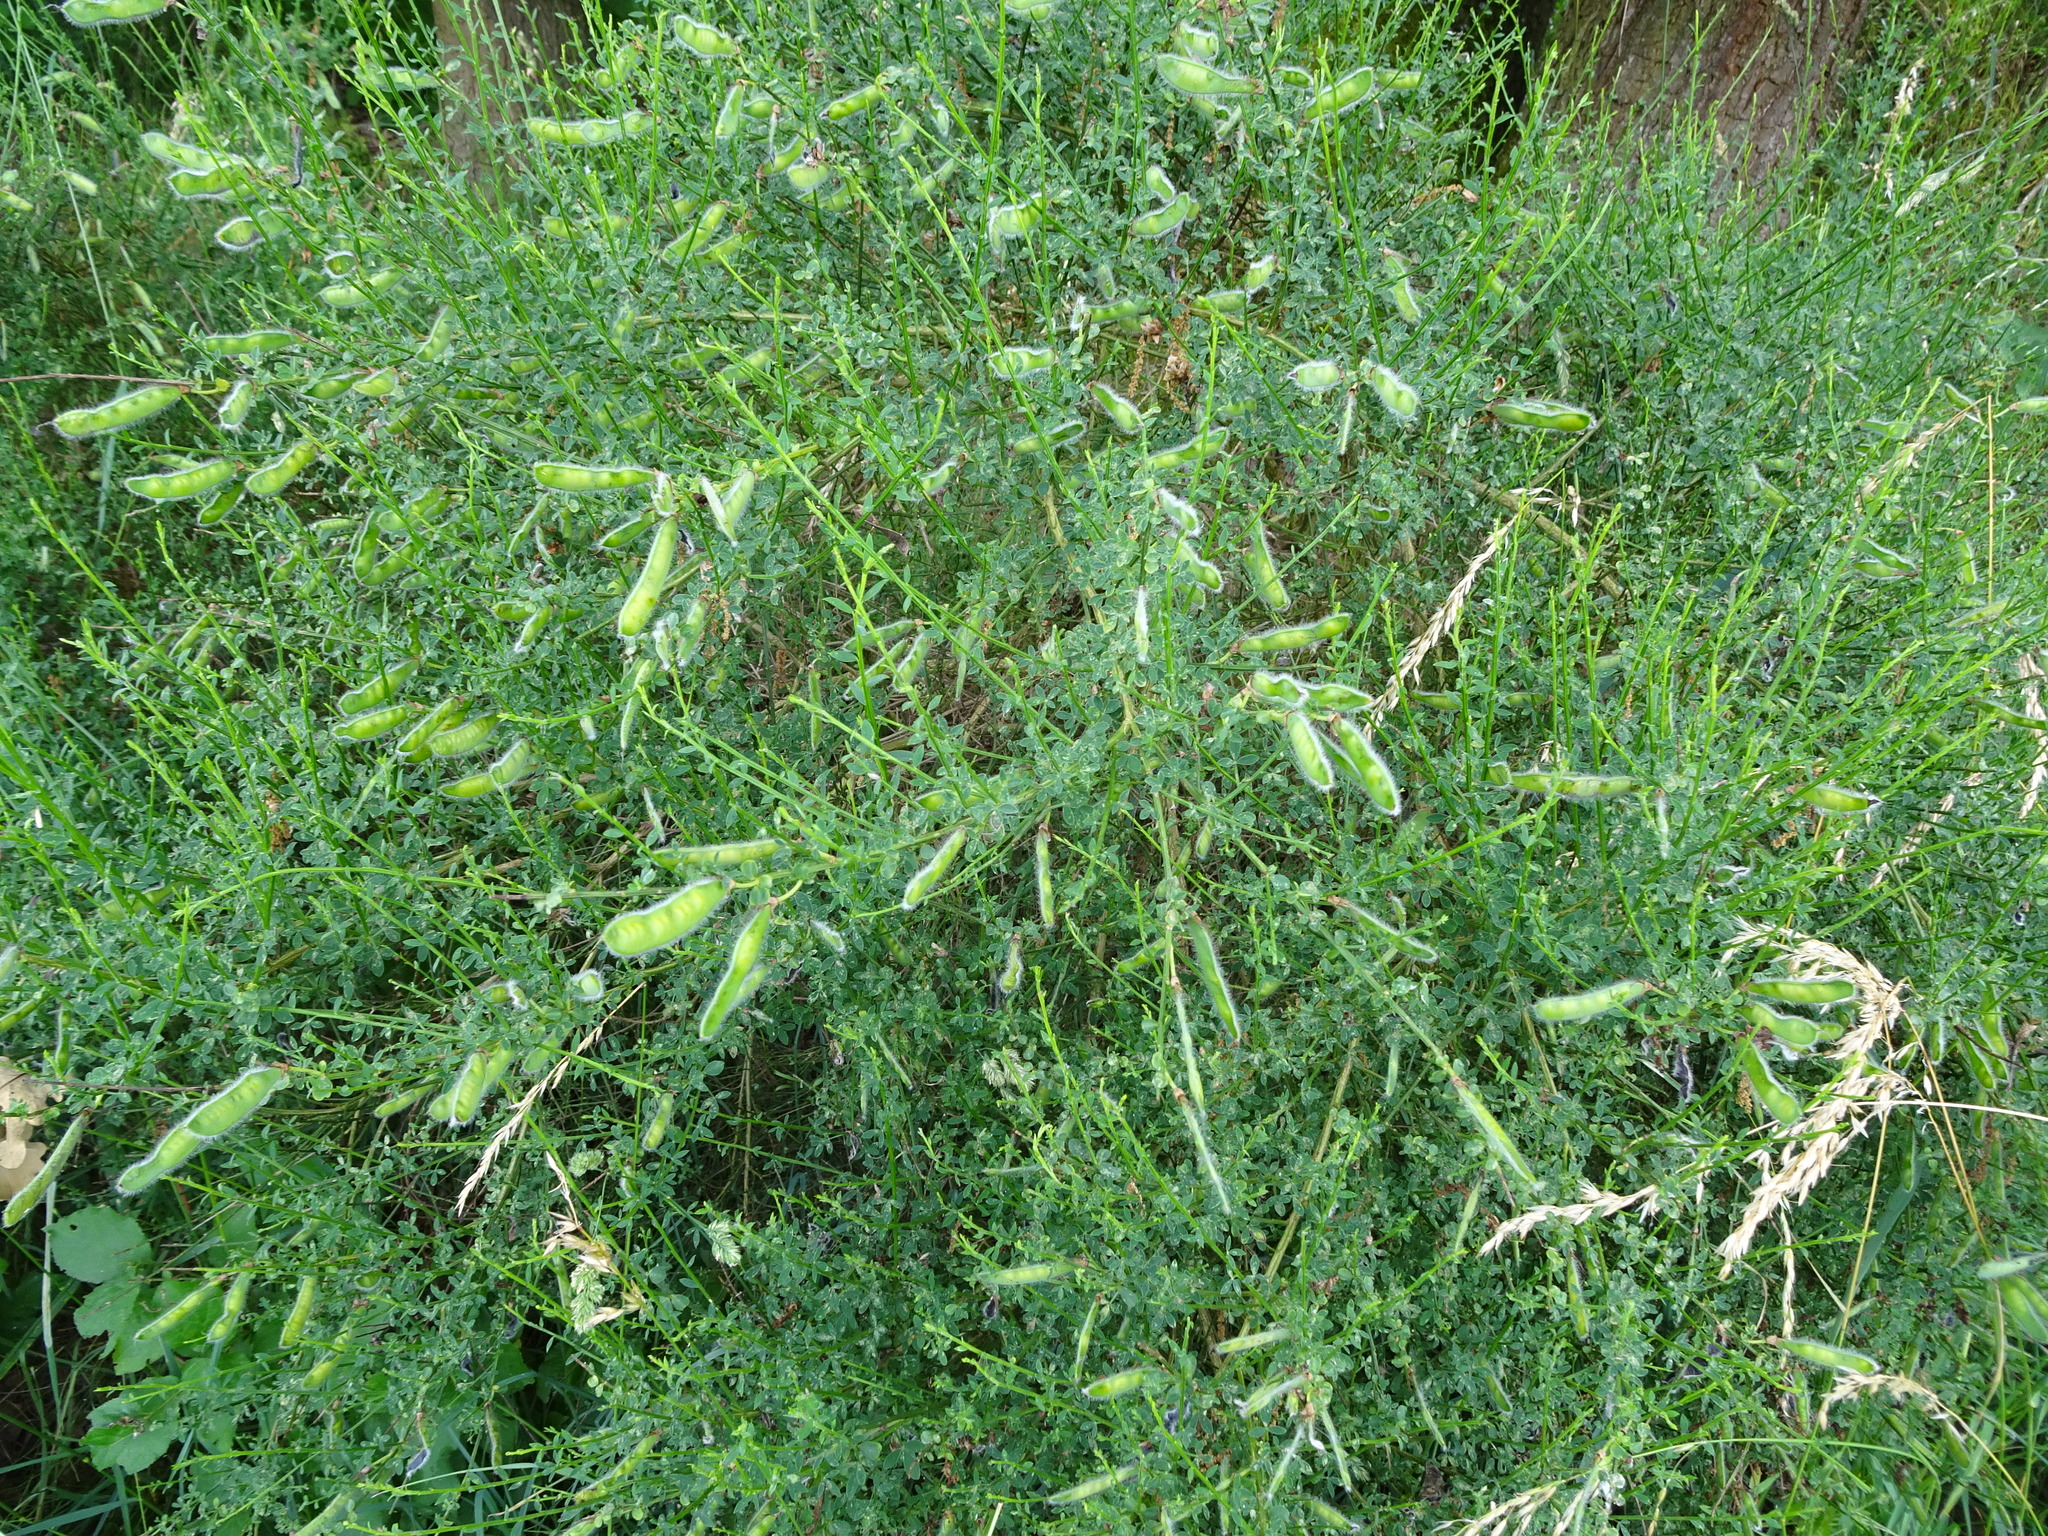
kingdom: Plantae
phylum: Tracheophyta
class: Magnoliopsida
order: Fabales
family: Fabaceae
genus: Cytisus
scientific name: Cytisus scoparius
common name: Scotch broom
